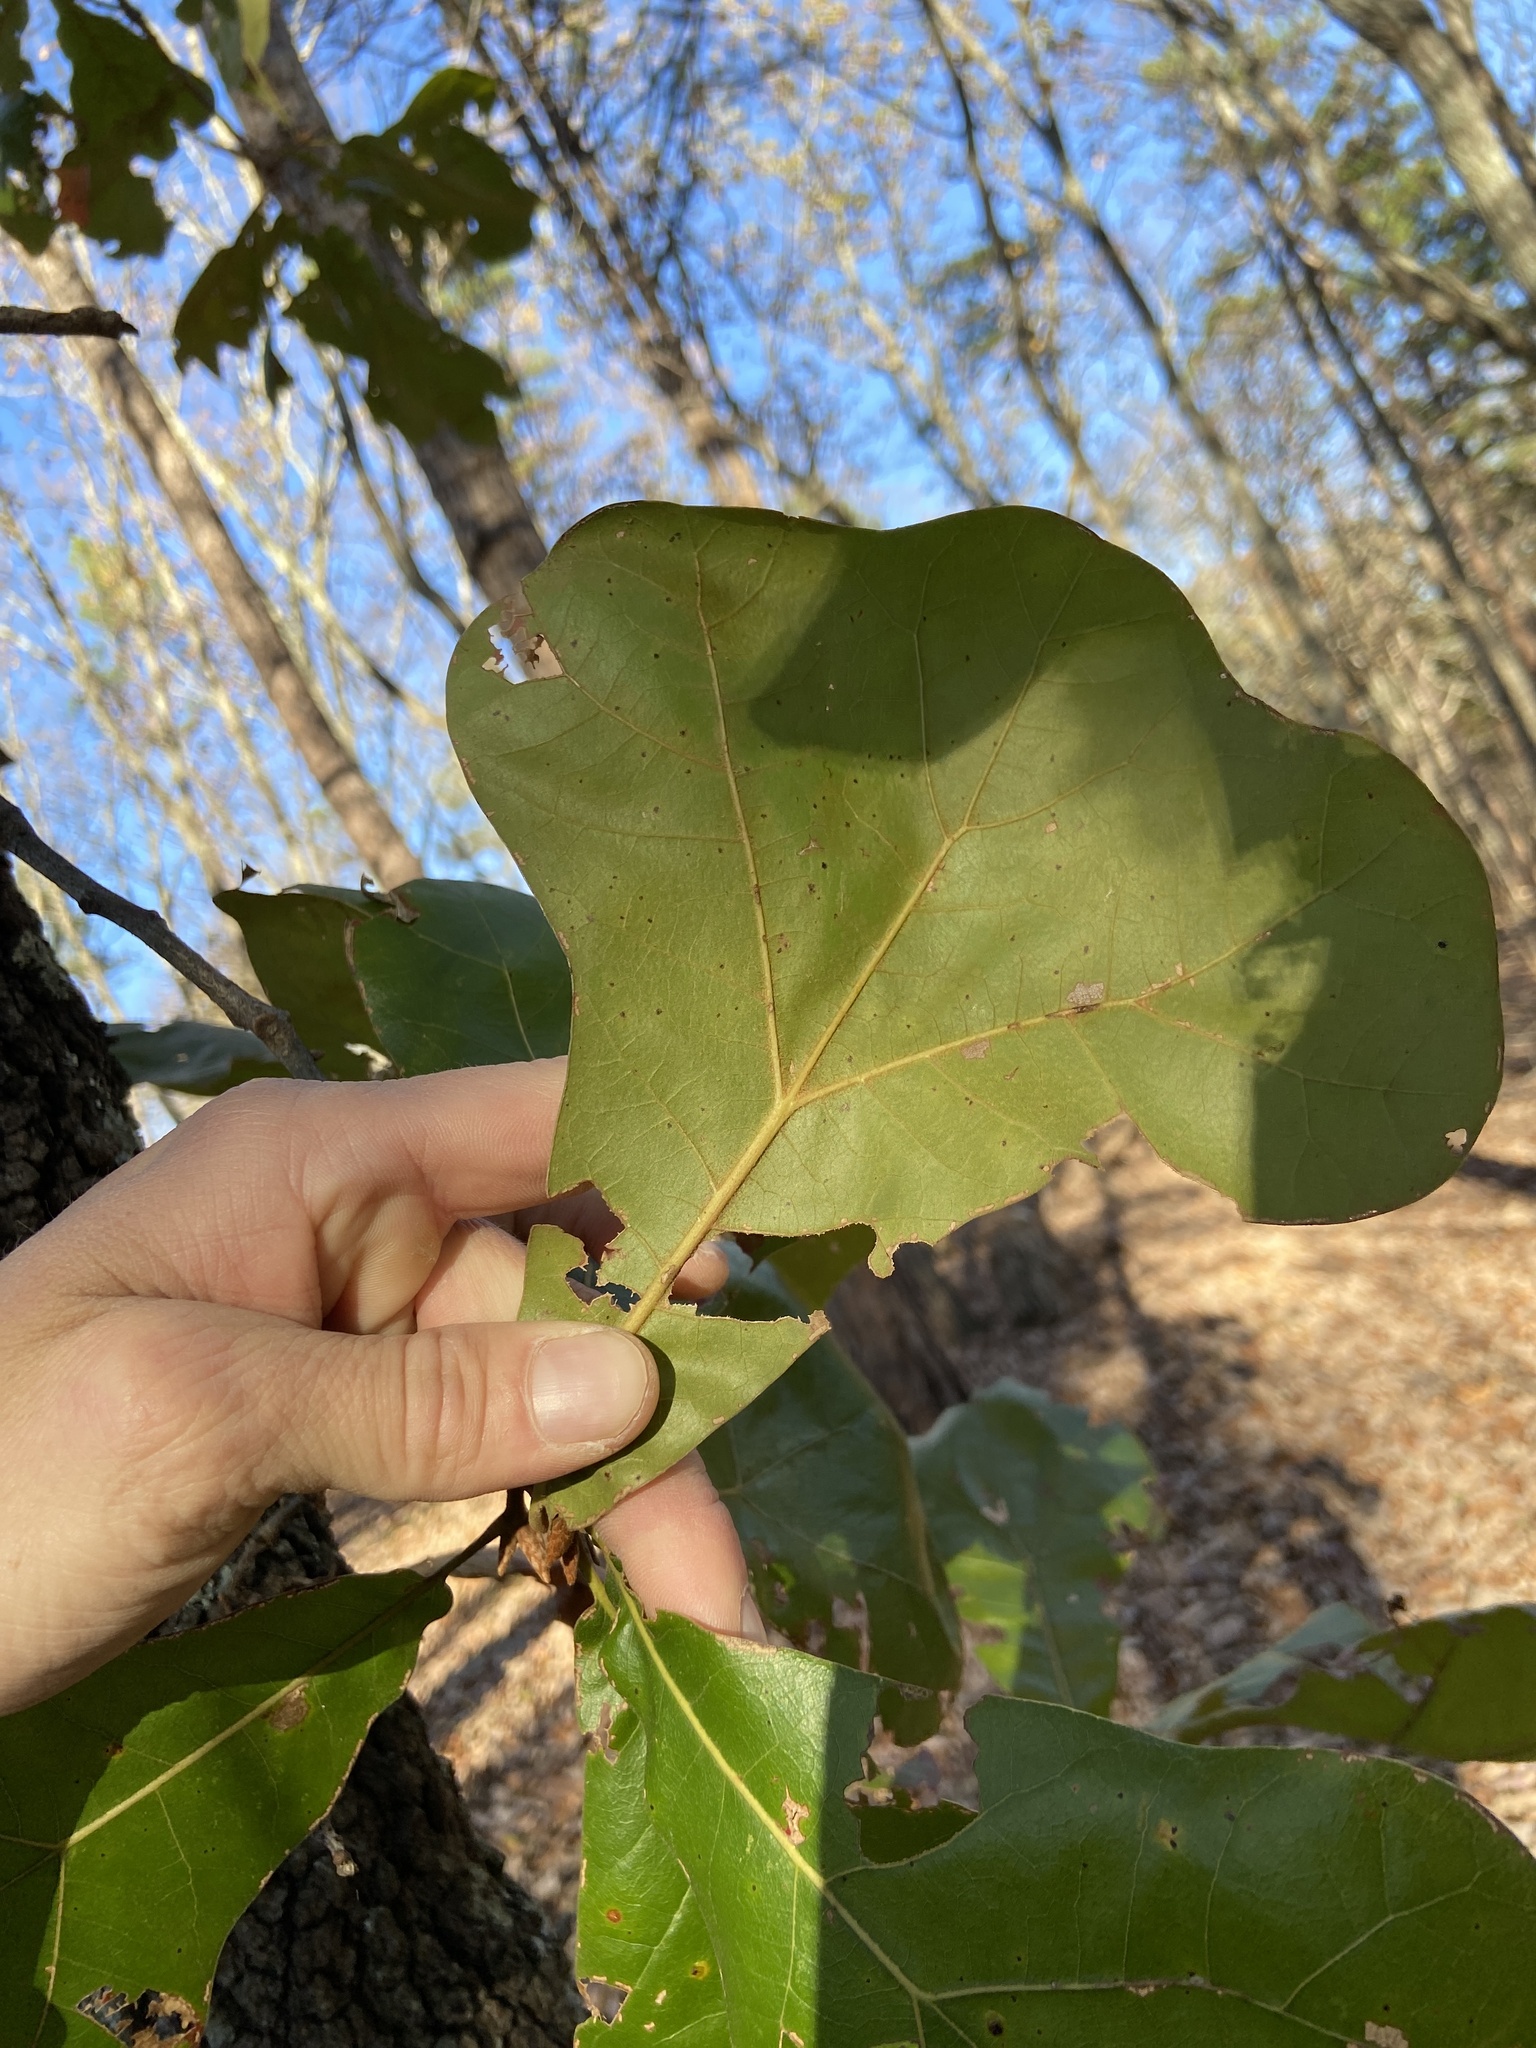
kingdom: Plantae
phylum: Tracheophyta
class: Magnoliopsida
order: Fagales
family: Fagaceae
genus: Quercus
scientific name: Quercus marilandica
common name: Blackjack oak
